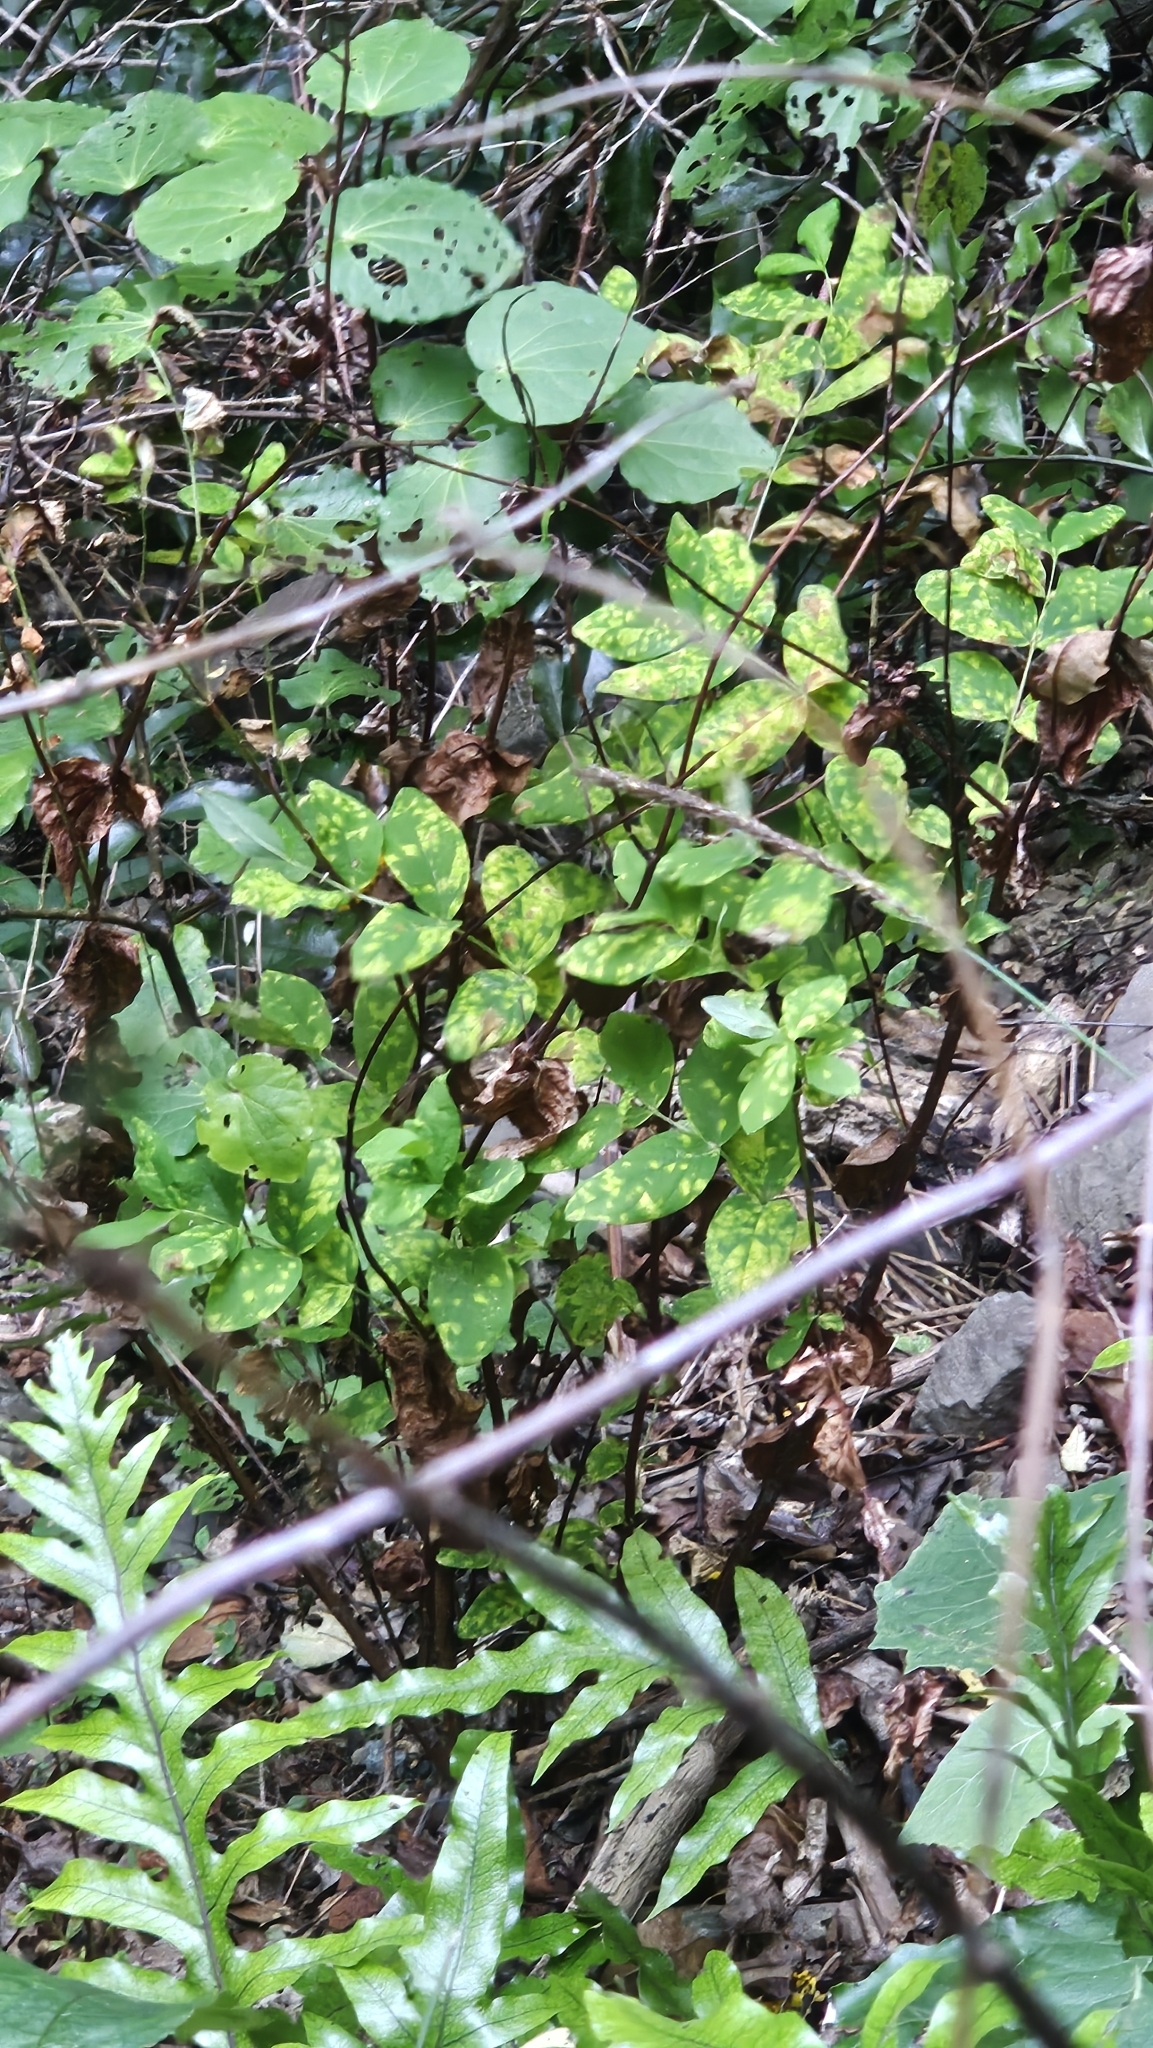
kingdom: Plantae
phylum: Tracheophyta
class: Magnoliopsida
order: Malpighiales
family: Hypericaceae
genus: Hypericum
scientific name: Hypericum androsaemum
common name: Sweet-amber
